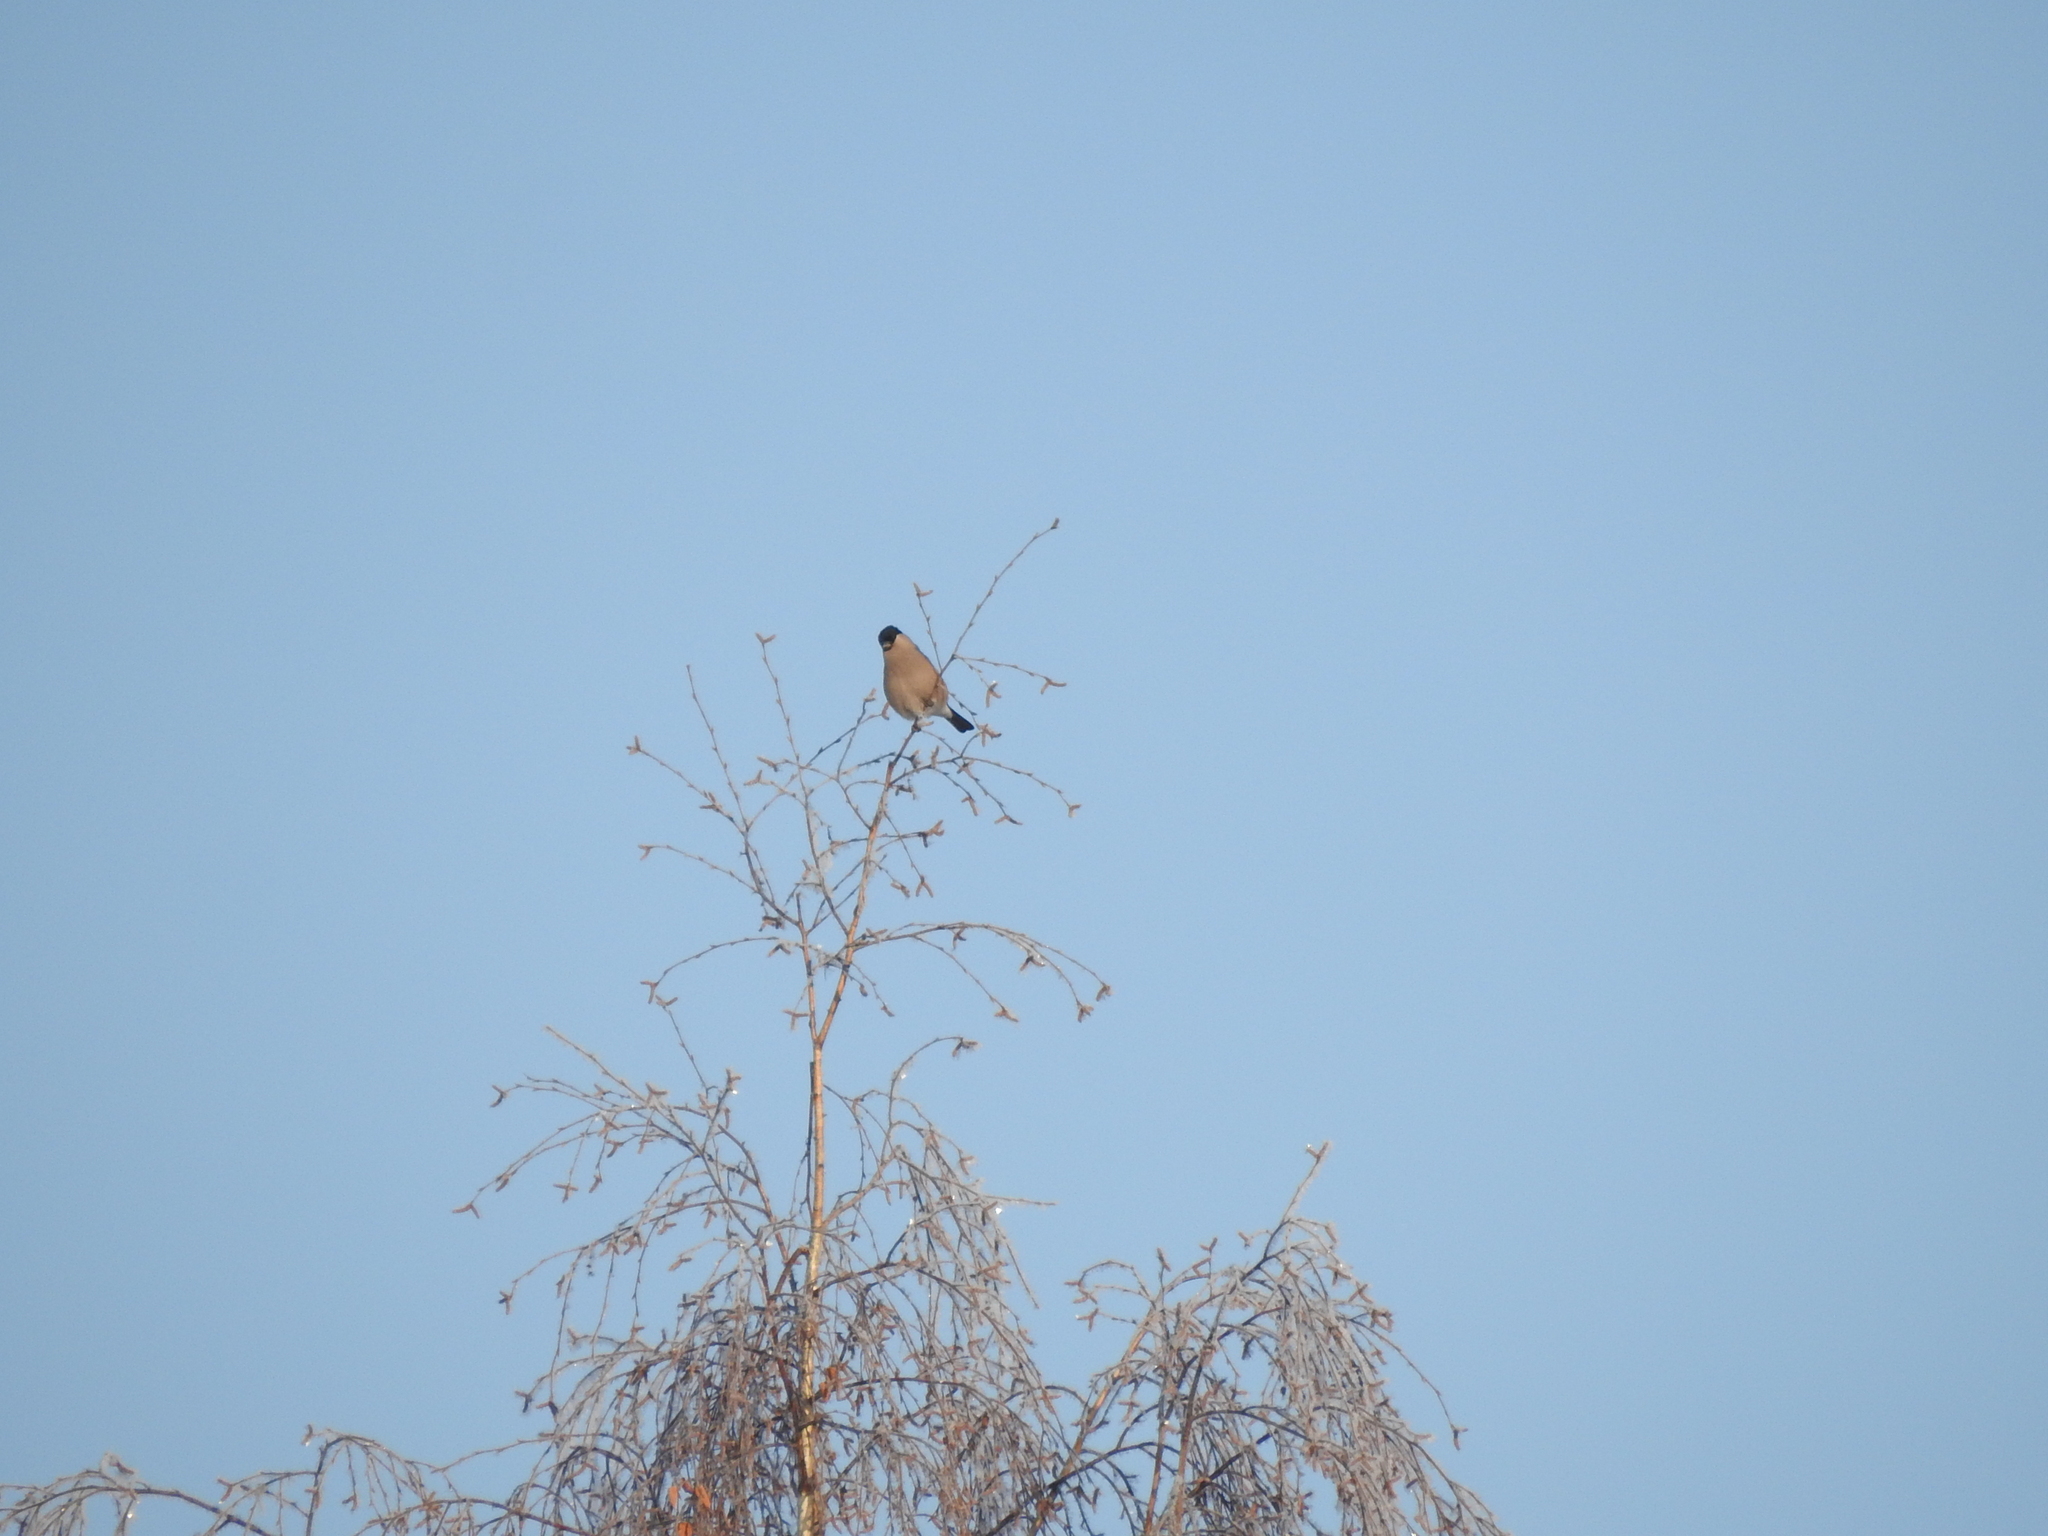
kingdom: Animalia
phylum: Chordata
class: Aves
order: Passeriformes
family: Fringillidae
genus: Pyrrhula
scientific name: Pyrrhula pyrrhula
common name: Eurasian bullfinch
